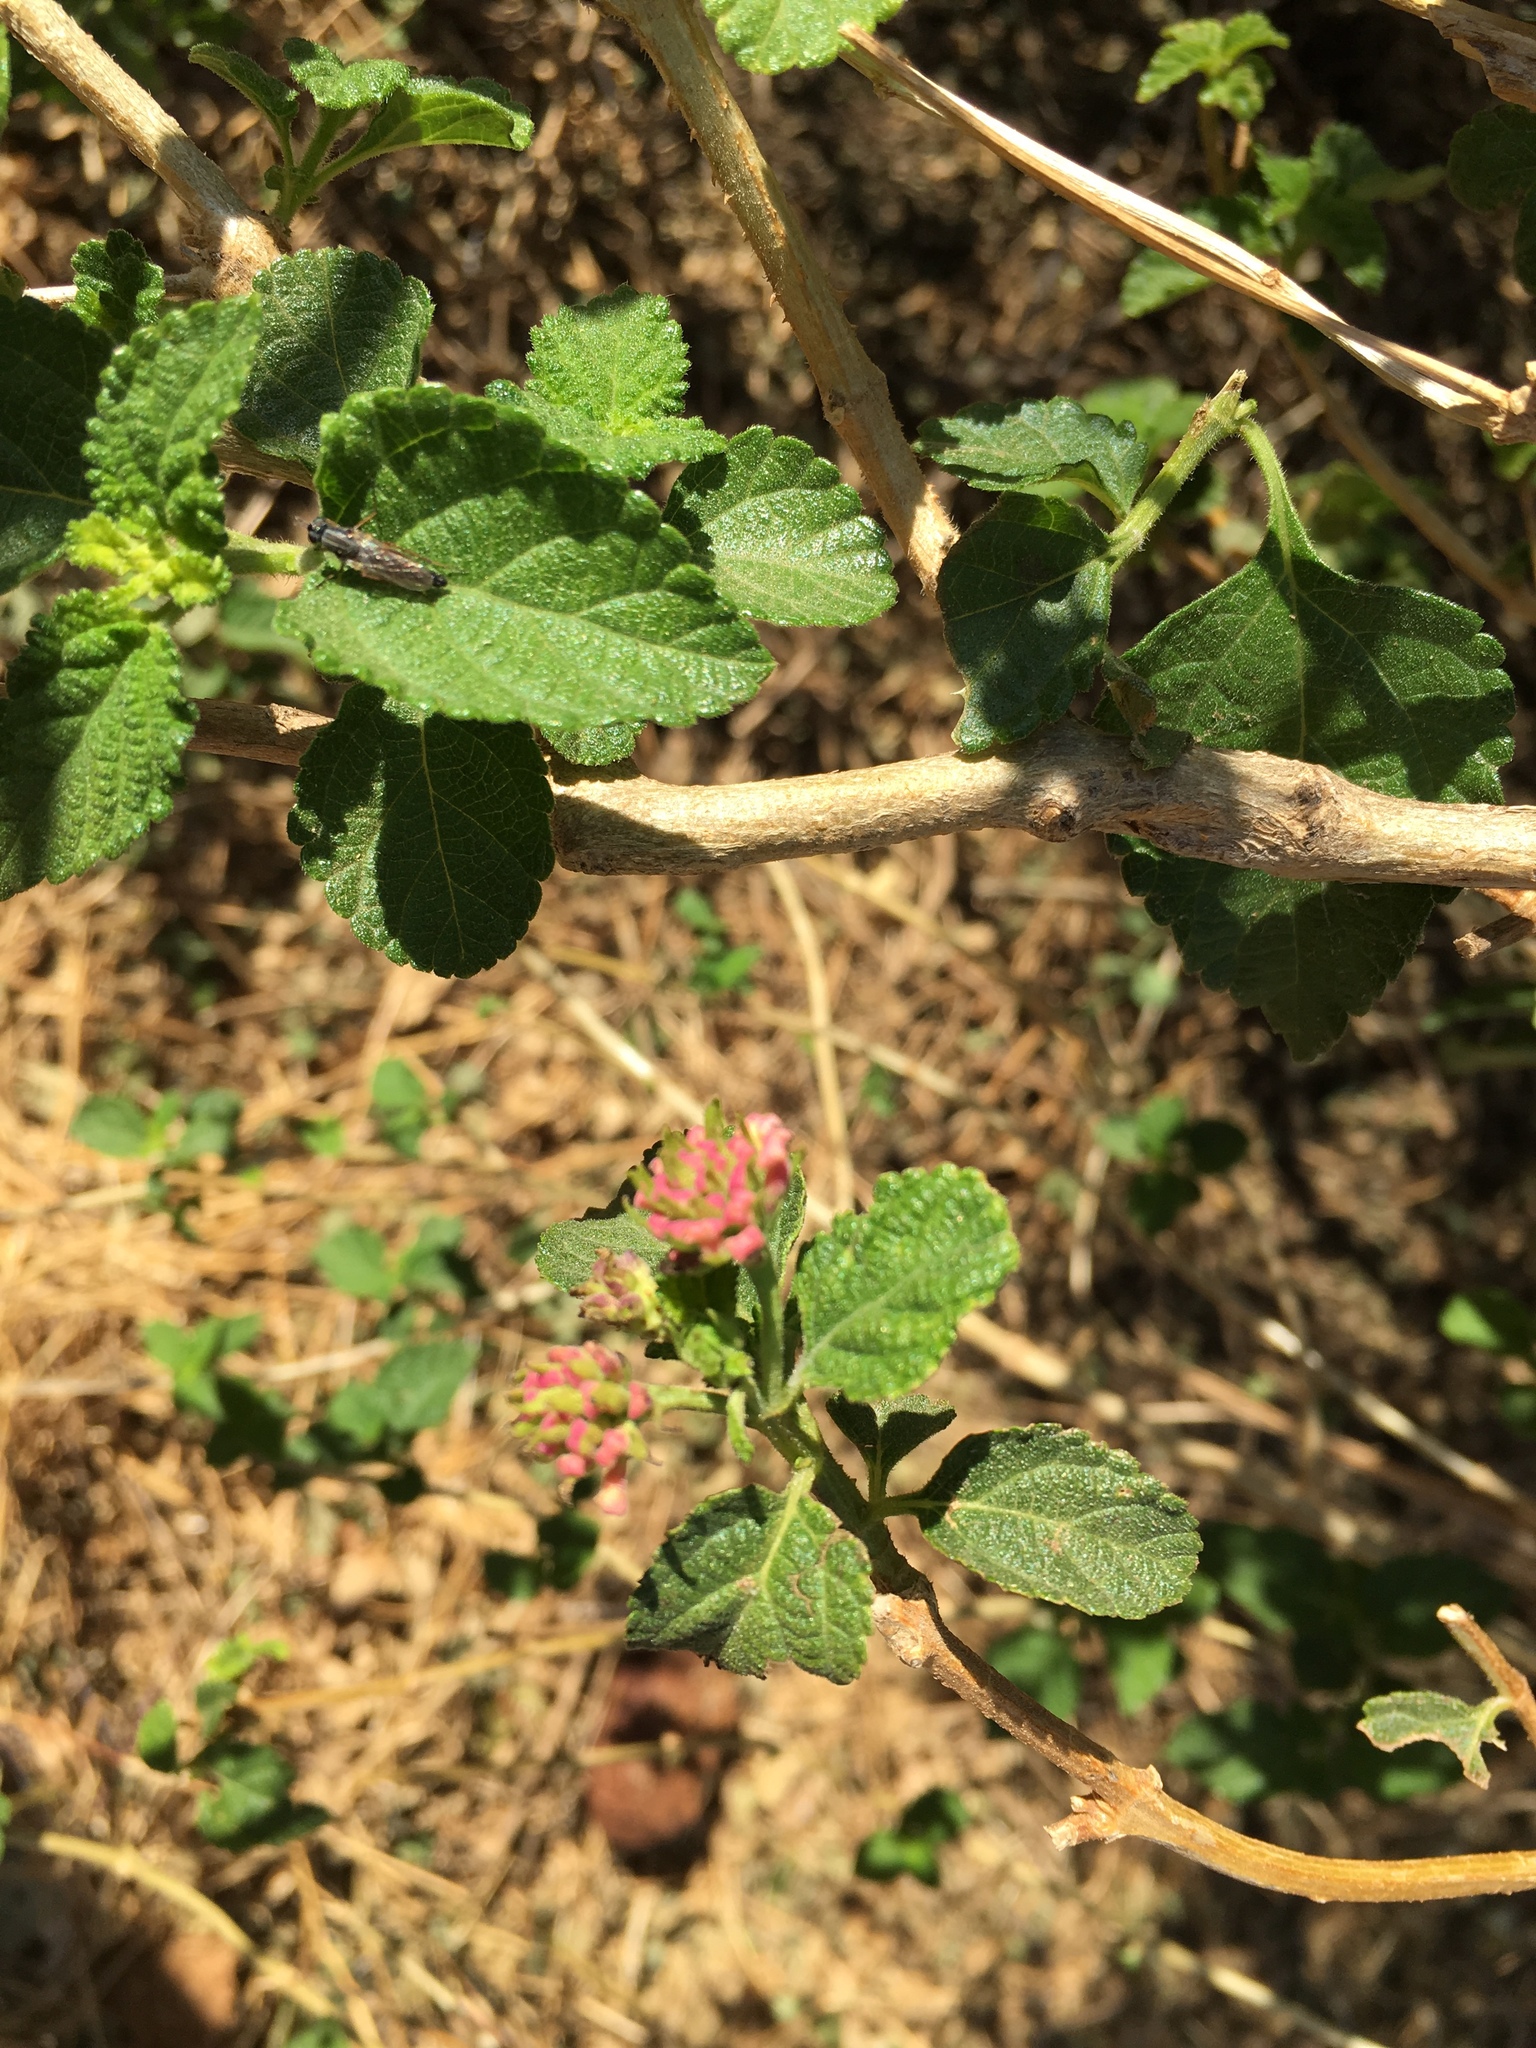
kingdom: Plantae
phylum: Tracheophyta
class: Magnoliopsida
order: Lamiales
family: Verbenaceae
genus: Lantana
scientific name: Lantana camara
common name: Lantana
